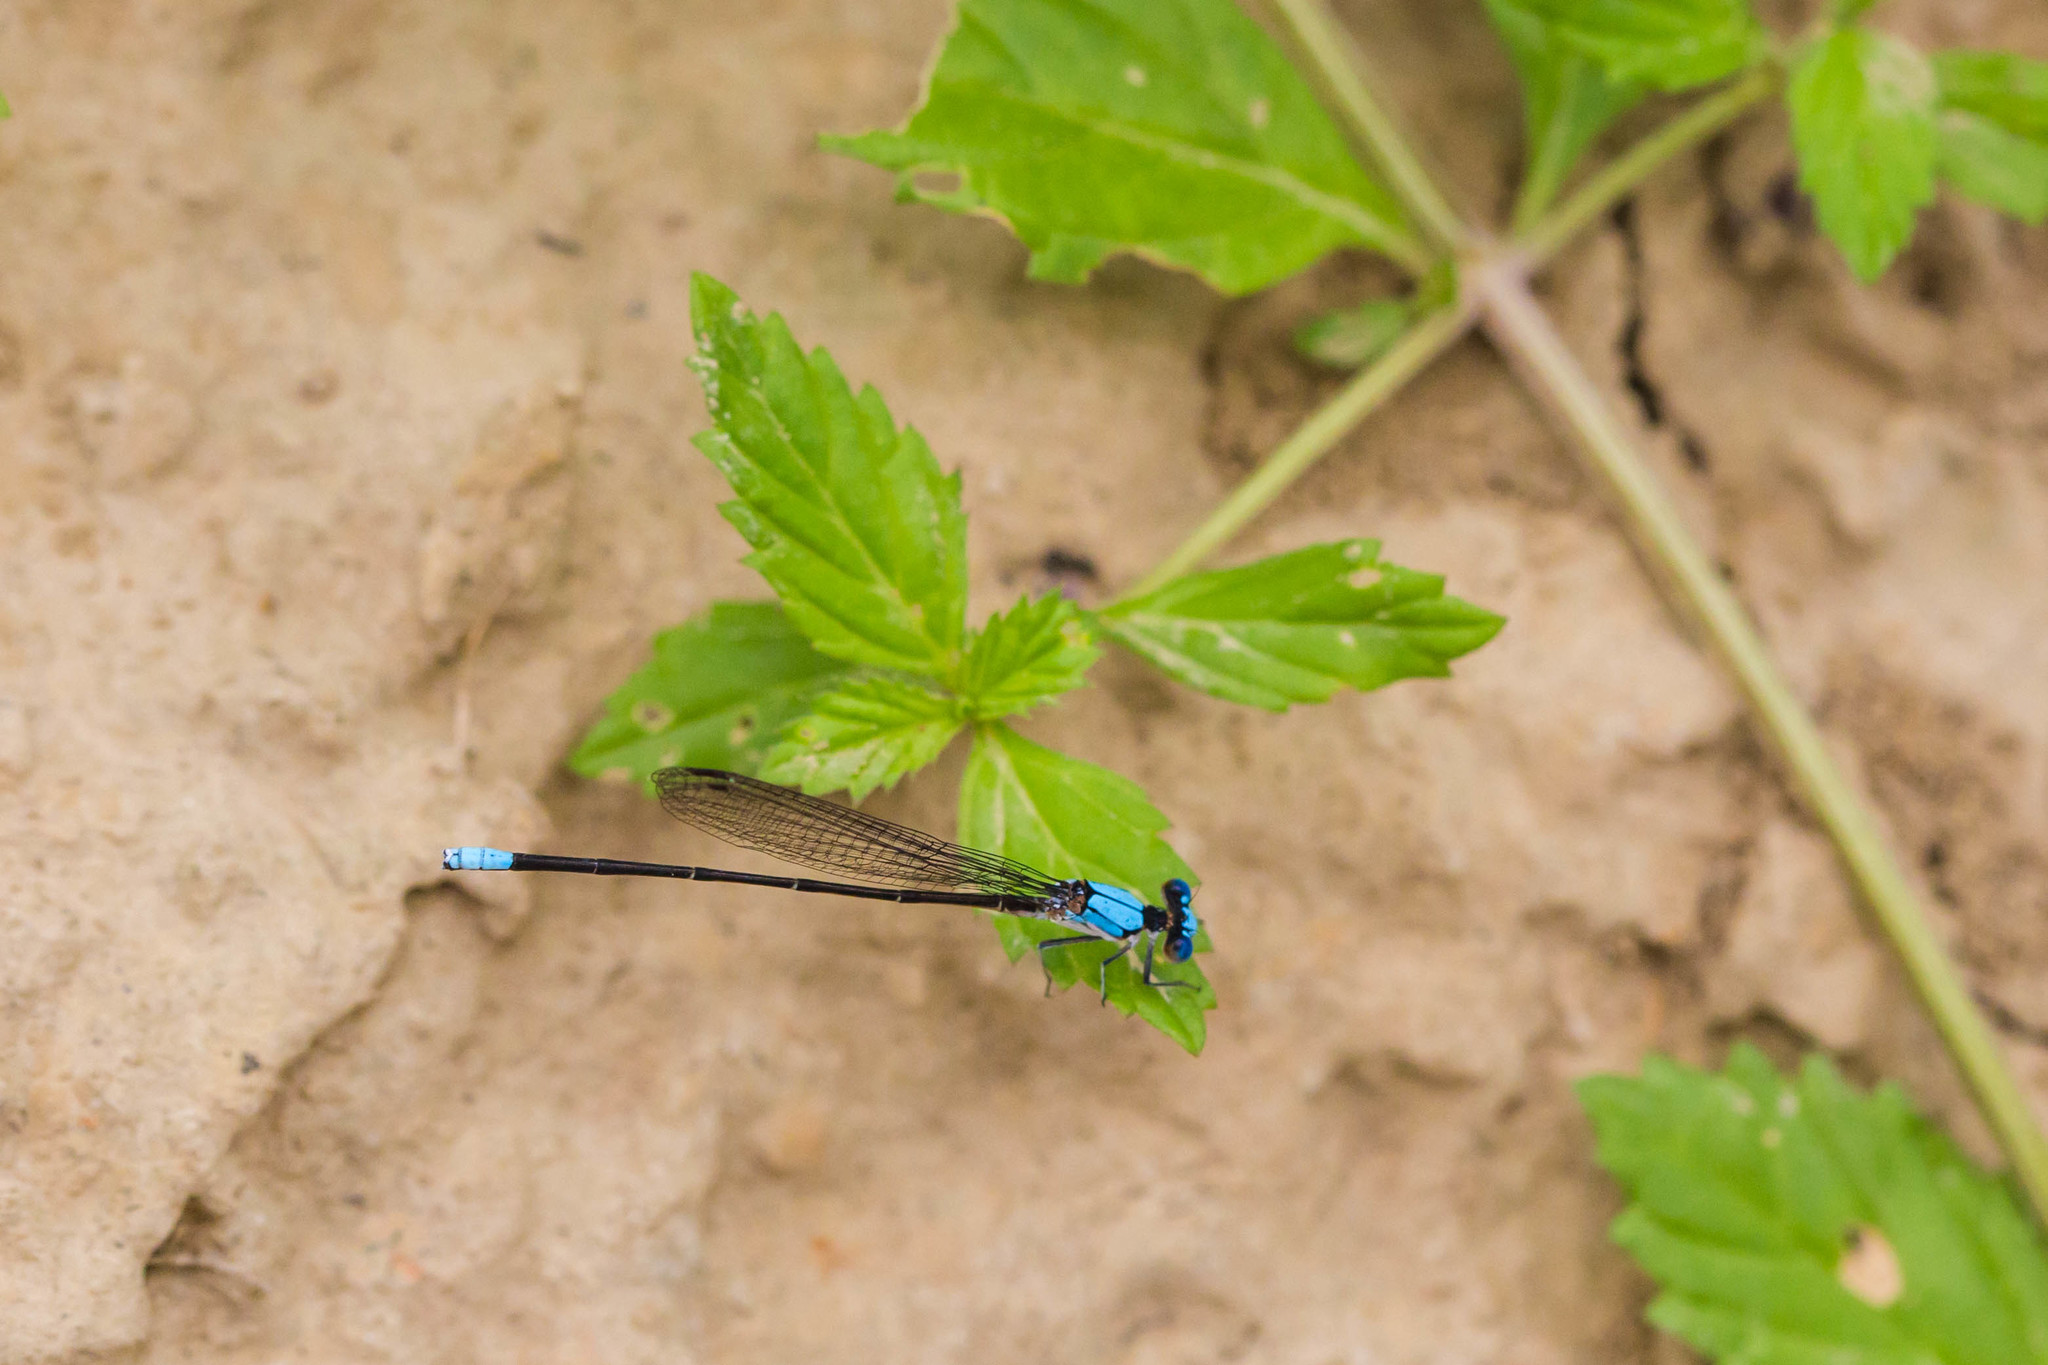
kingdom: Animalia
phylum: Arthropoda
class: Insecta
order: Odonata
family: Coenagrionidae
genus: Argia
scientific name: Argia apicalis
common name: Blue-fronted dancer
